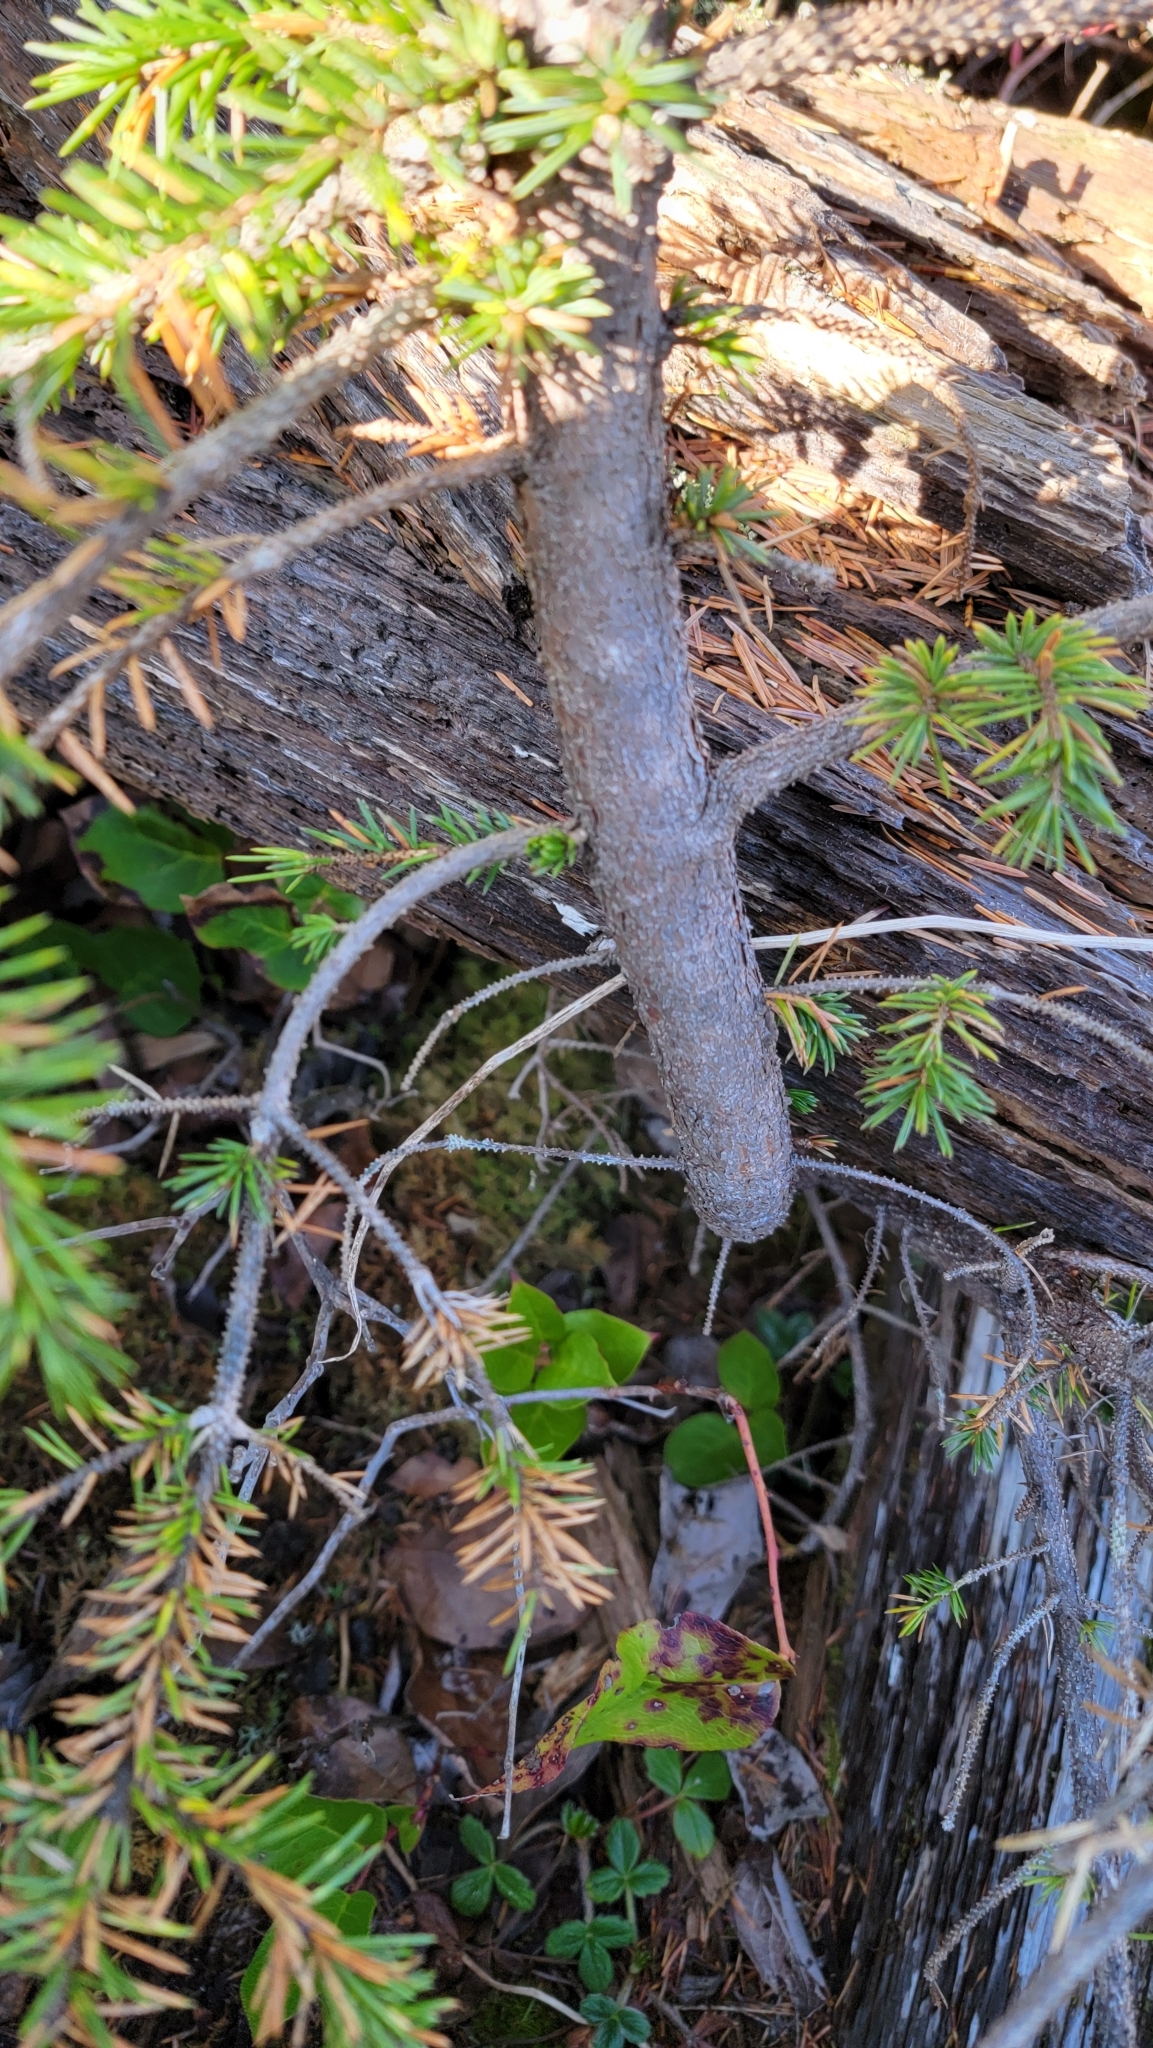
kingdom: Plantae
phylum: Tracheophyta
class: Pinopsida
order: Pinales
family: Pinaceae
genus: Picea
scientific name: Picea sitchensis
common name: Sitka spruce
